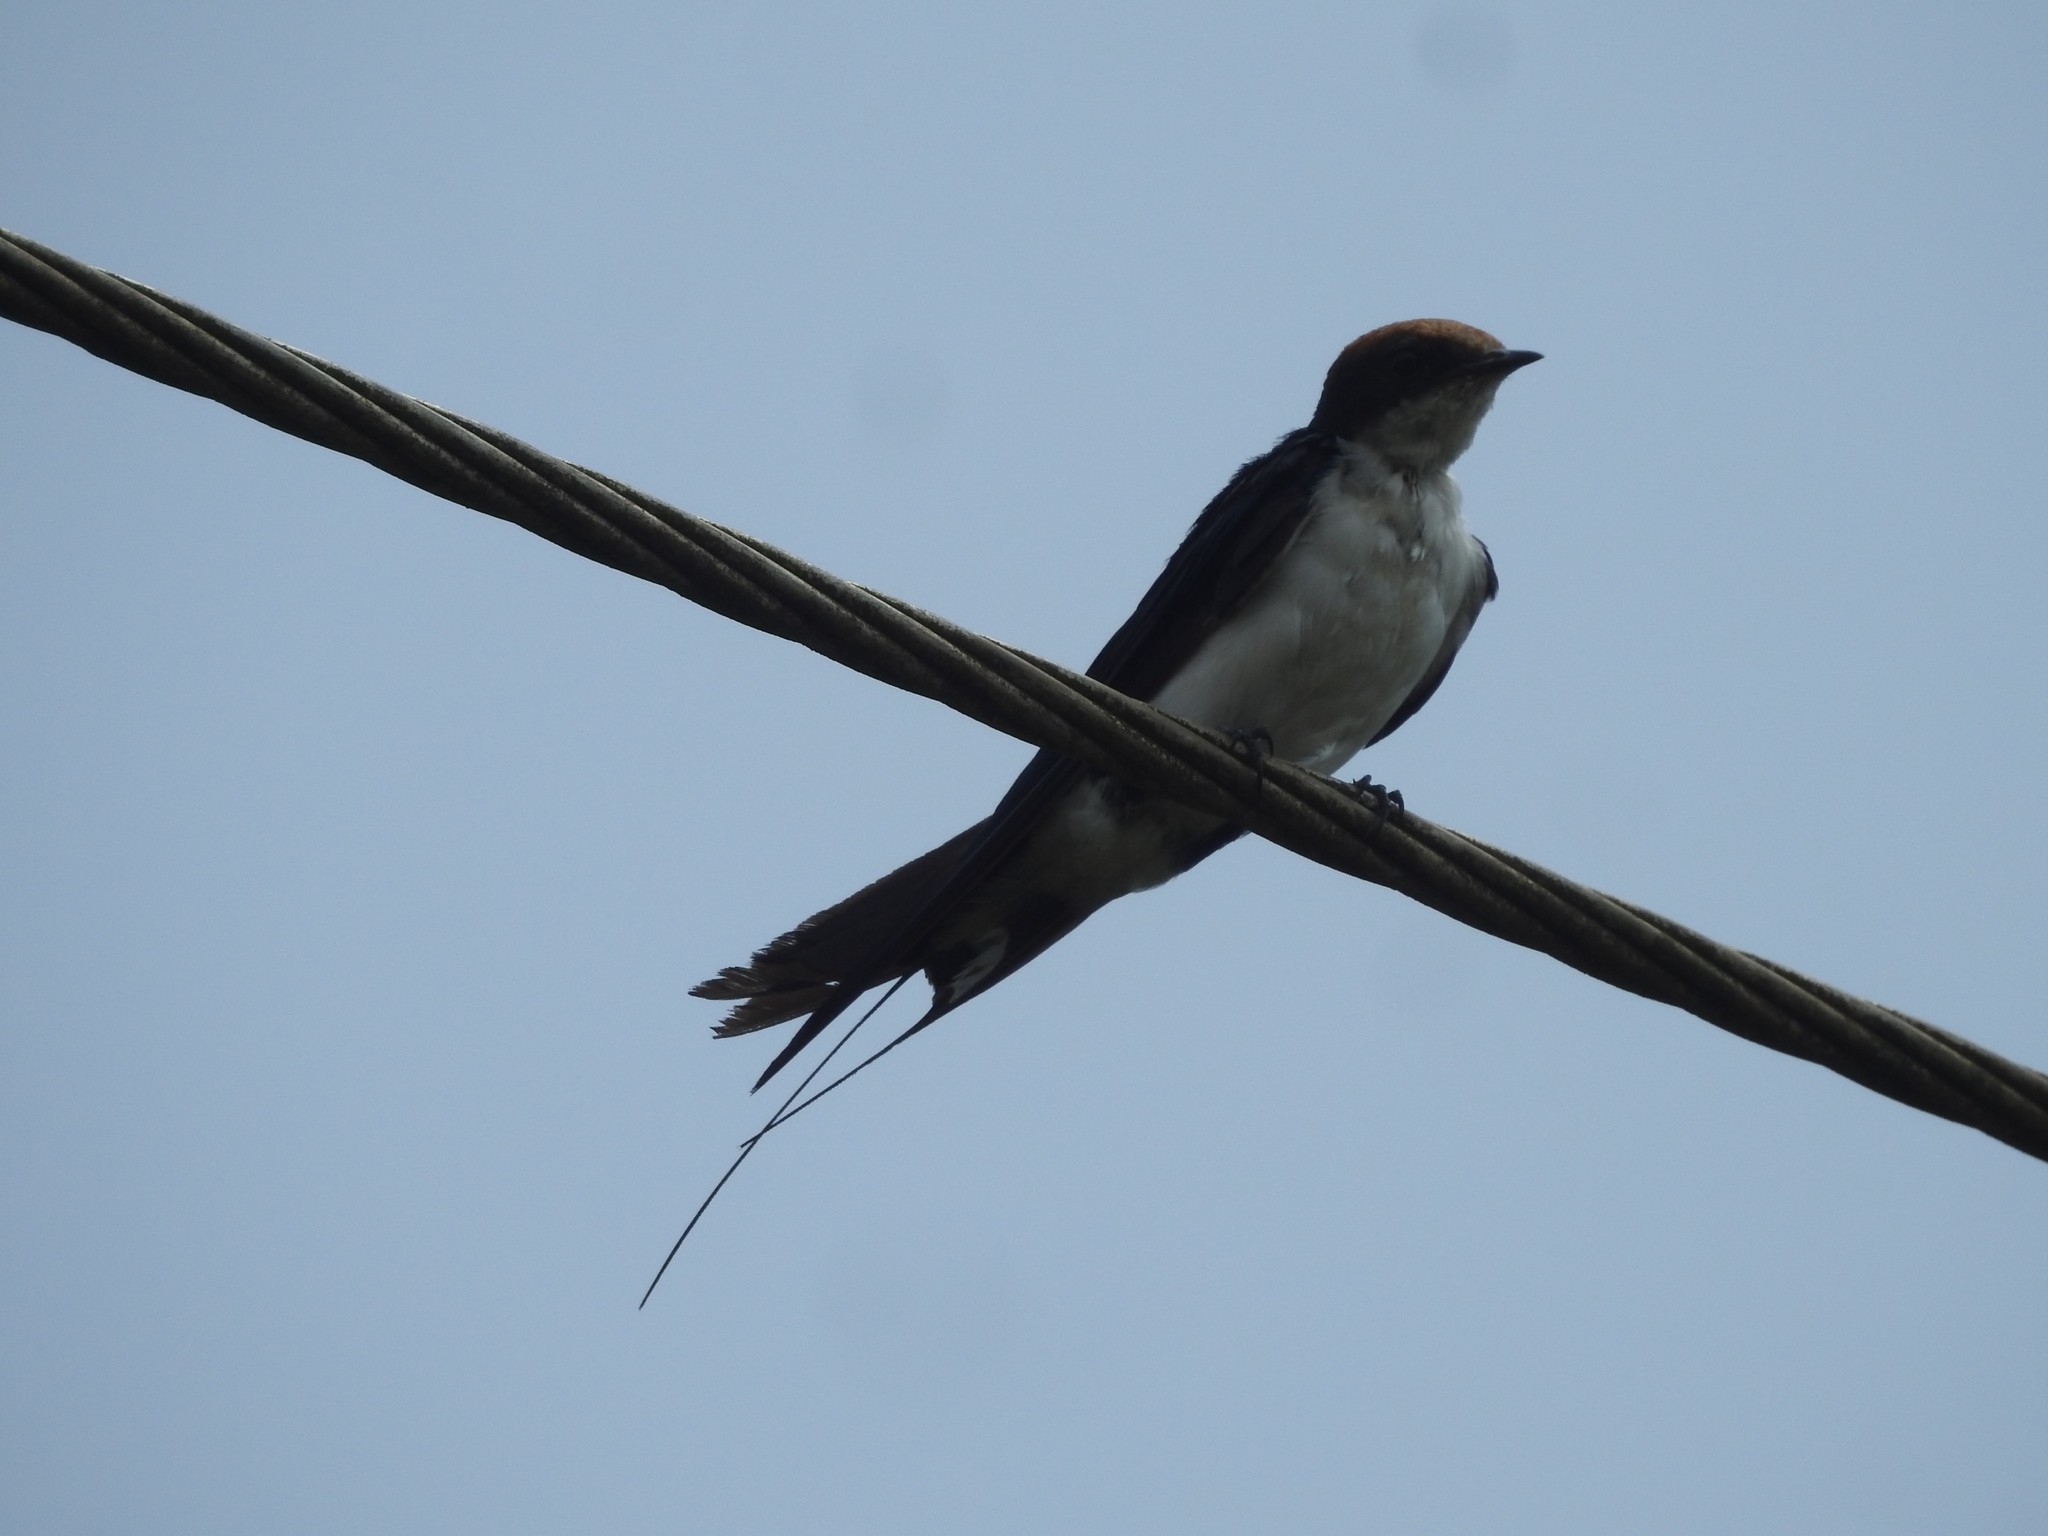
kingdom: Animalia
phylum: Chordata
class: Aves
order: Passeriformes
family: Hirundinidae
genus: Hirundo
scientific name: Hirundo smithii
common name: Wire-tailed swallow
